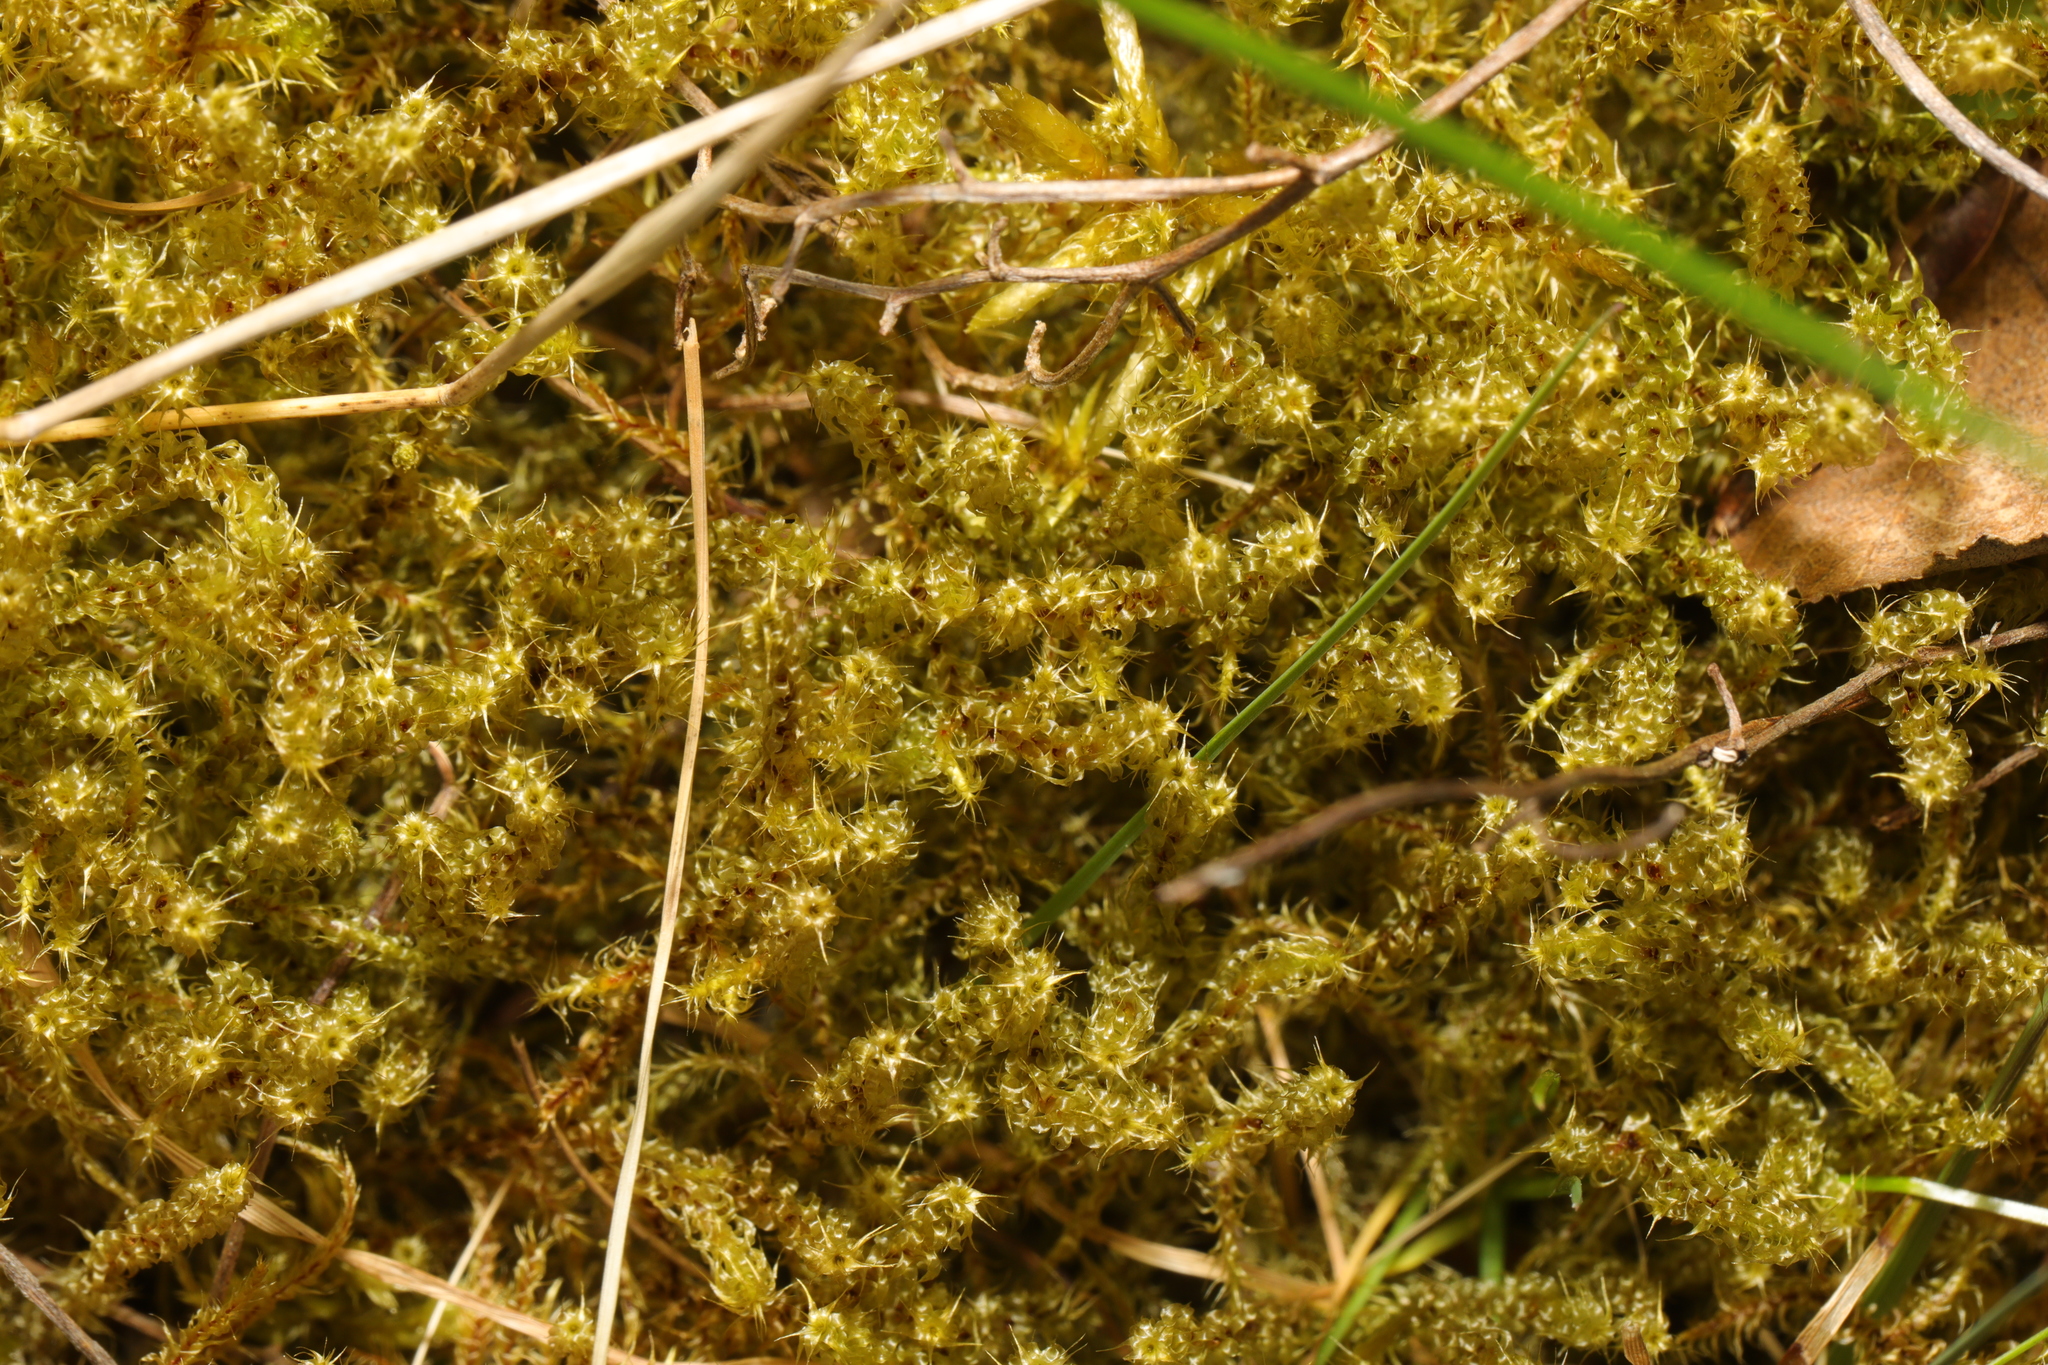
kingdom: Plantae
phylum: Bryophyta
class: Bryopsida
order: Hypnales
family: Hylocomiaceae
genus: Rhytidiadelphus
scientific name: Rhytidiadelphus squarrosus
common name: Springy turf-moss
